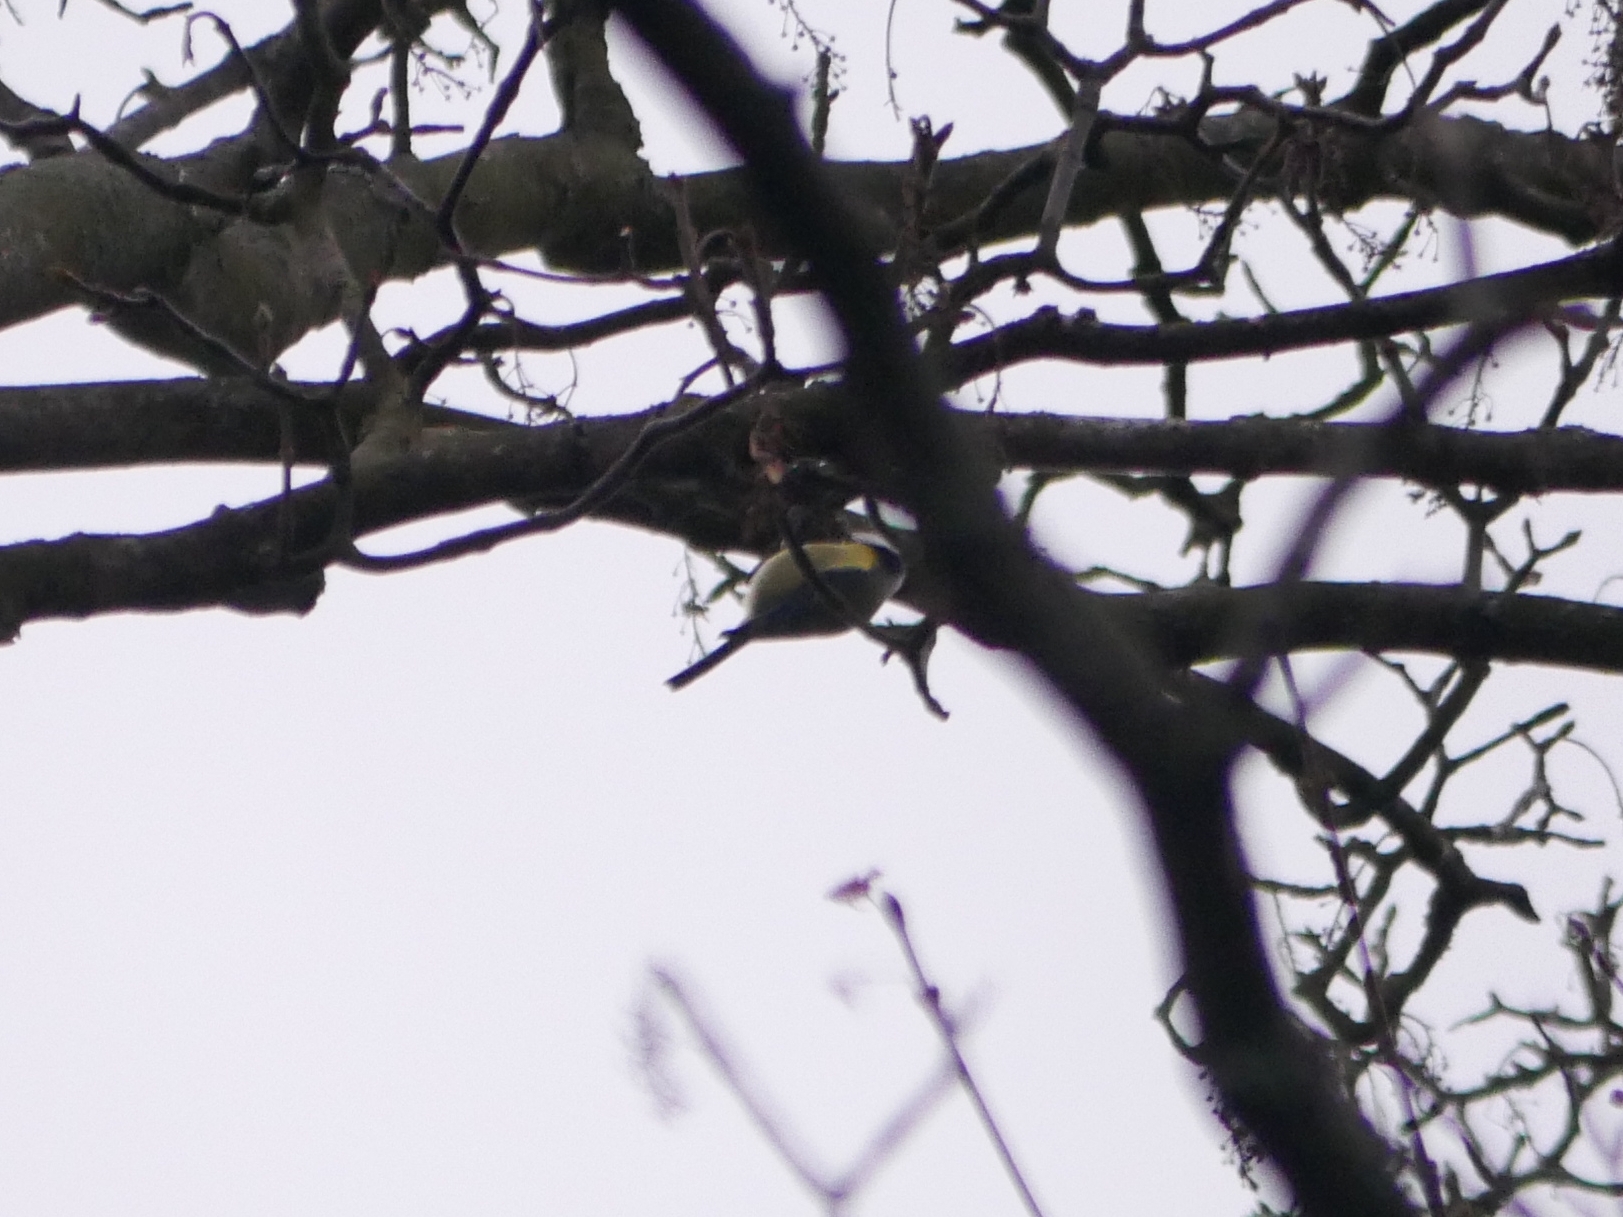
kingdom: Animalia
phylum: Chordata
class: Aves
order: Passeriformes
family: Paridae
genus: Cyanistes
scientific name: Cyanistes caeruleus
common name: Eurasian blue tit
